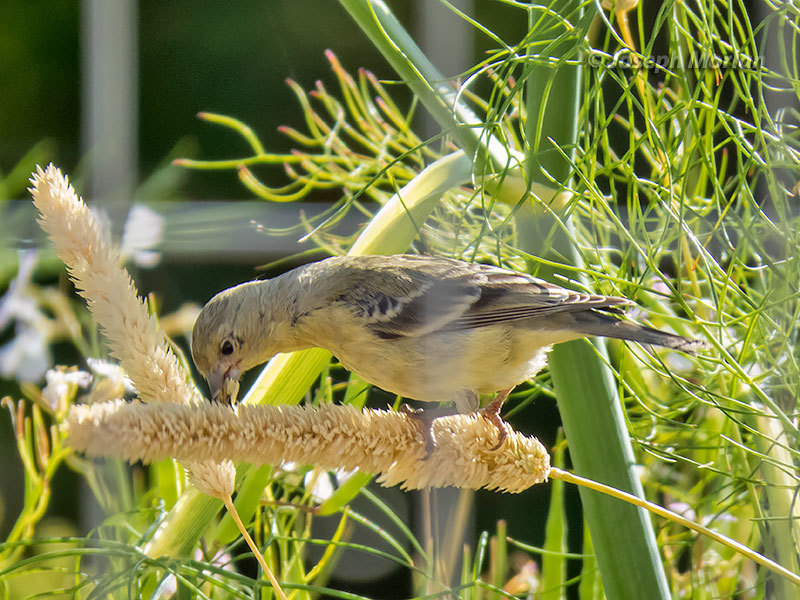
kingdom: Animalia
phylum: Chordata
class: Aves
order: Passeriformes
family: Fringillidae
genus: Spinus
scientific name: Spinus psaltria
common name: Lesser goldfinch
